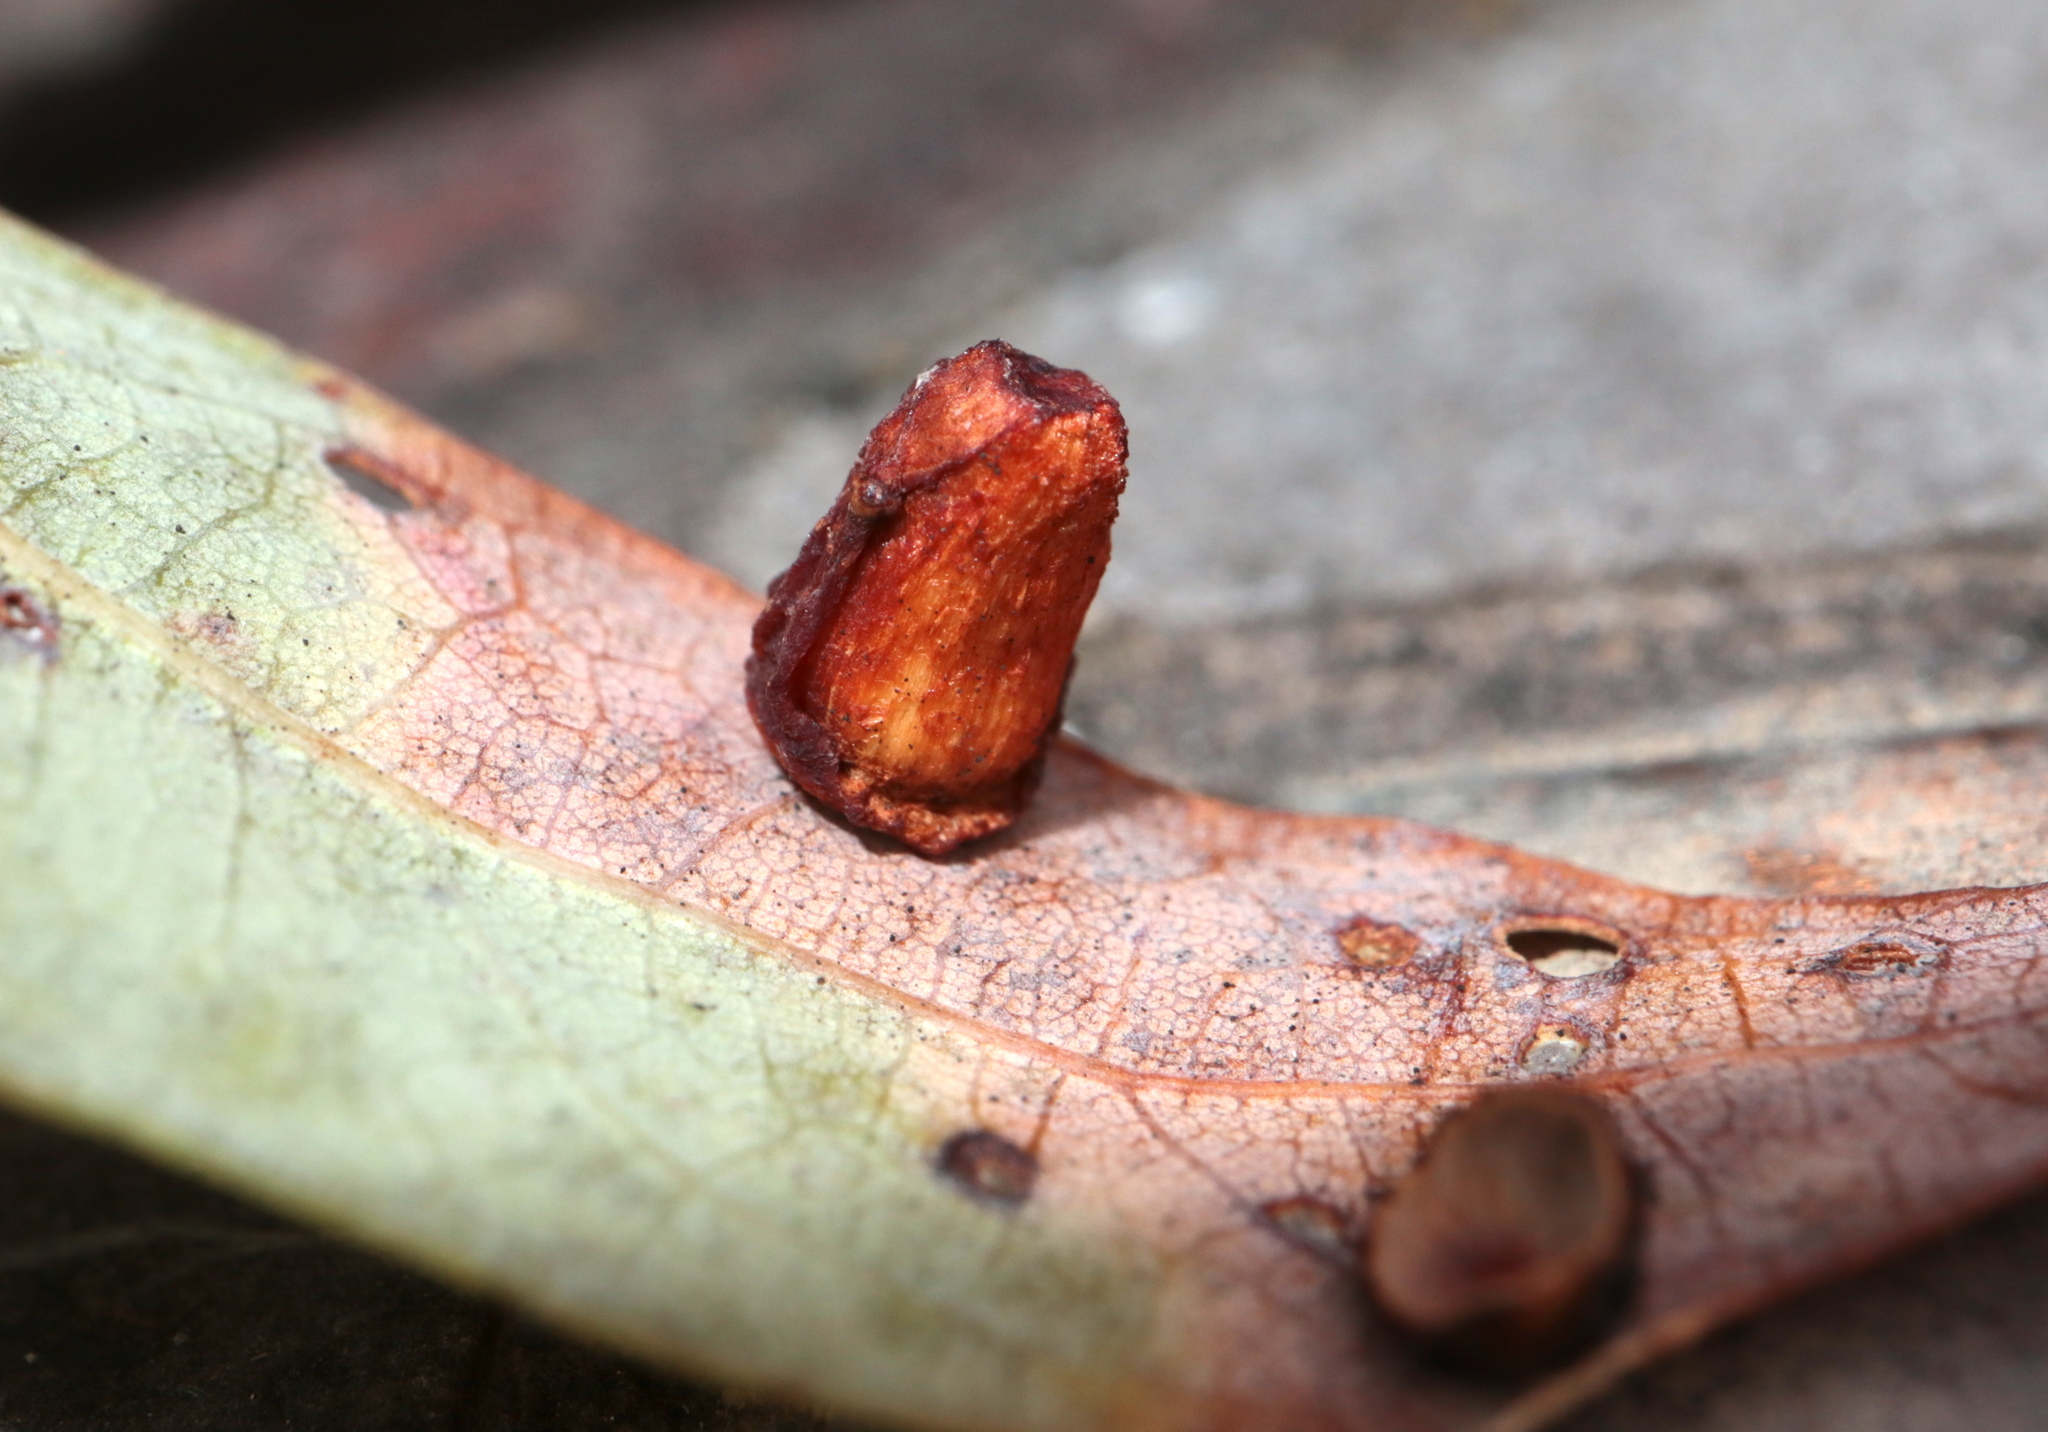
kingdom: Animalia
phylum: Arthropoda
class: Insecta
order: Hymenoptera
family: Cynipidae
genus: Andricus
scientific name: Andricus
